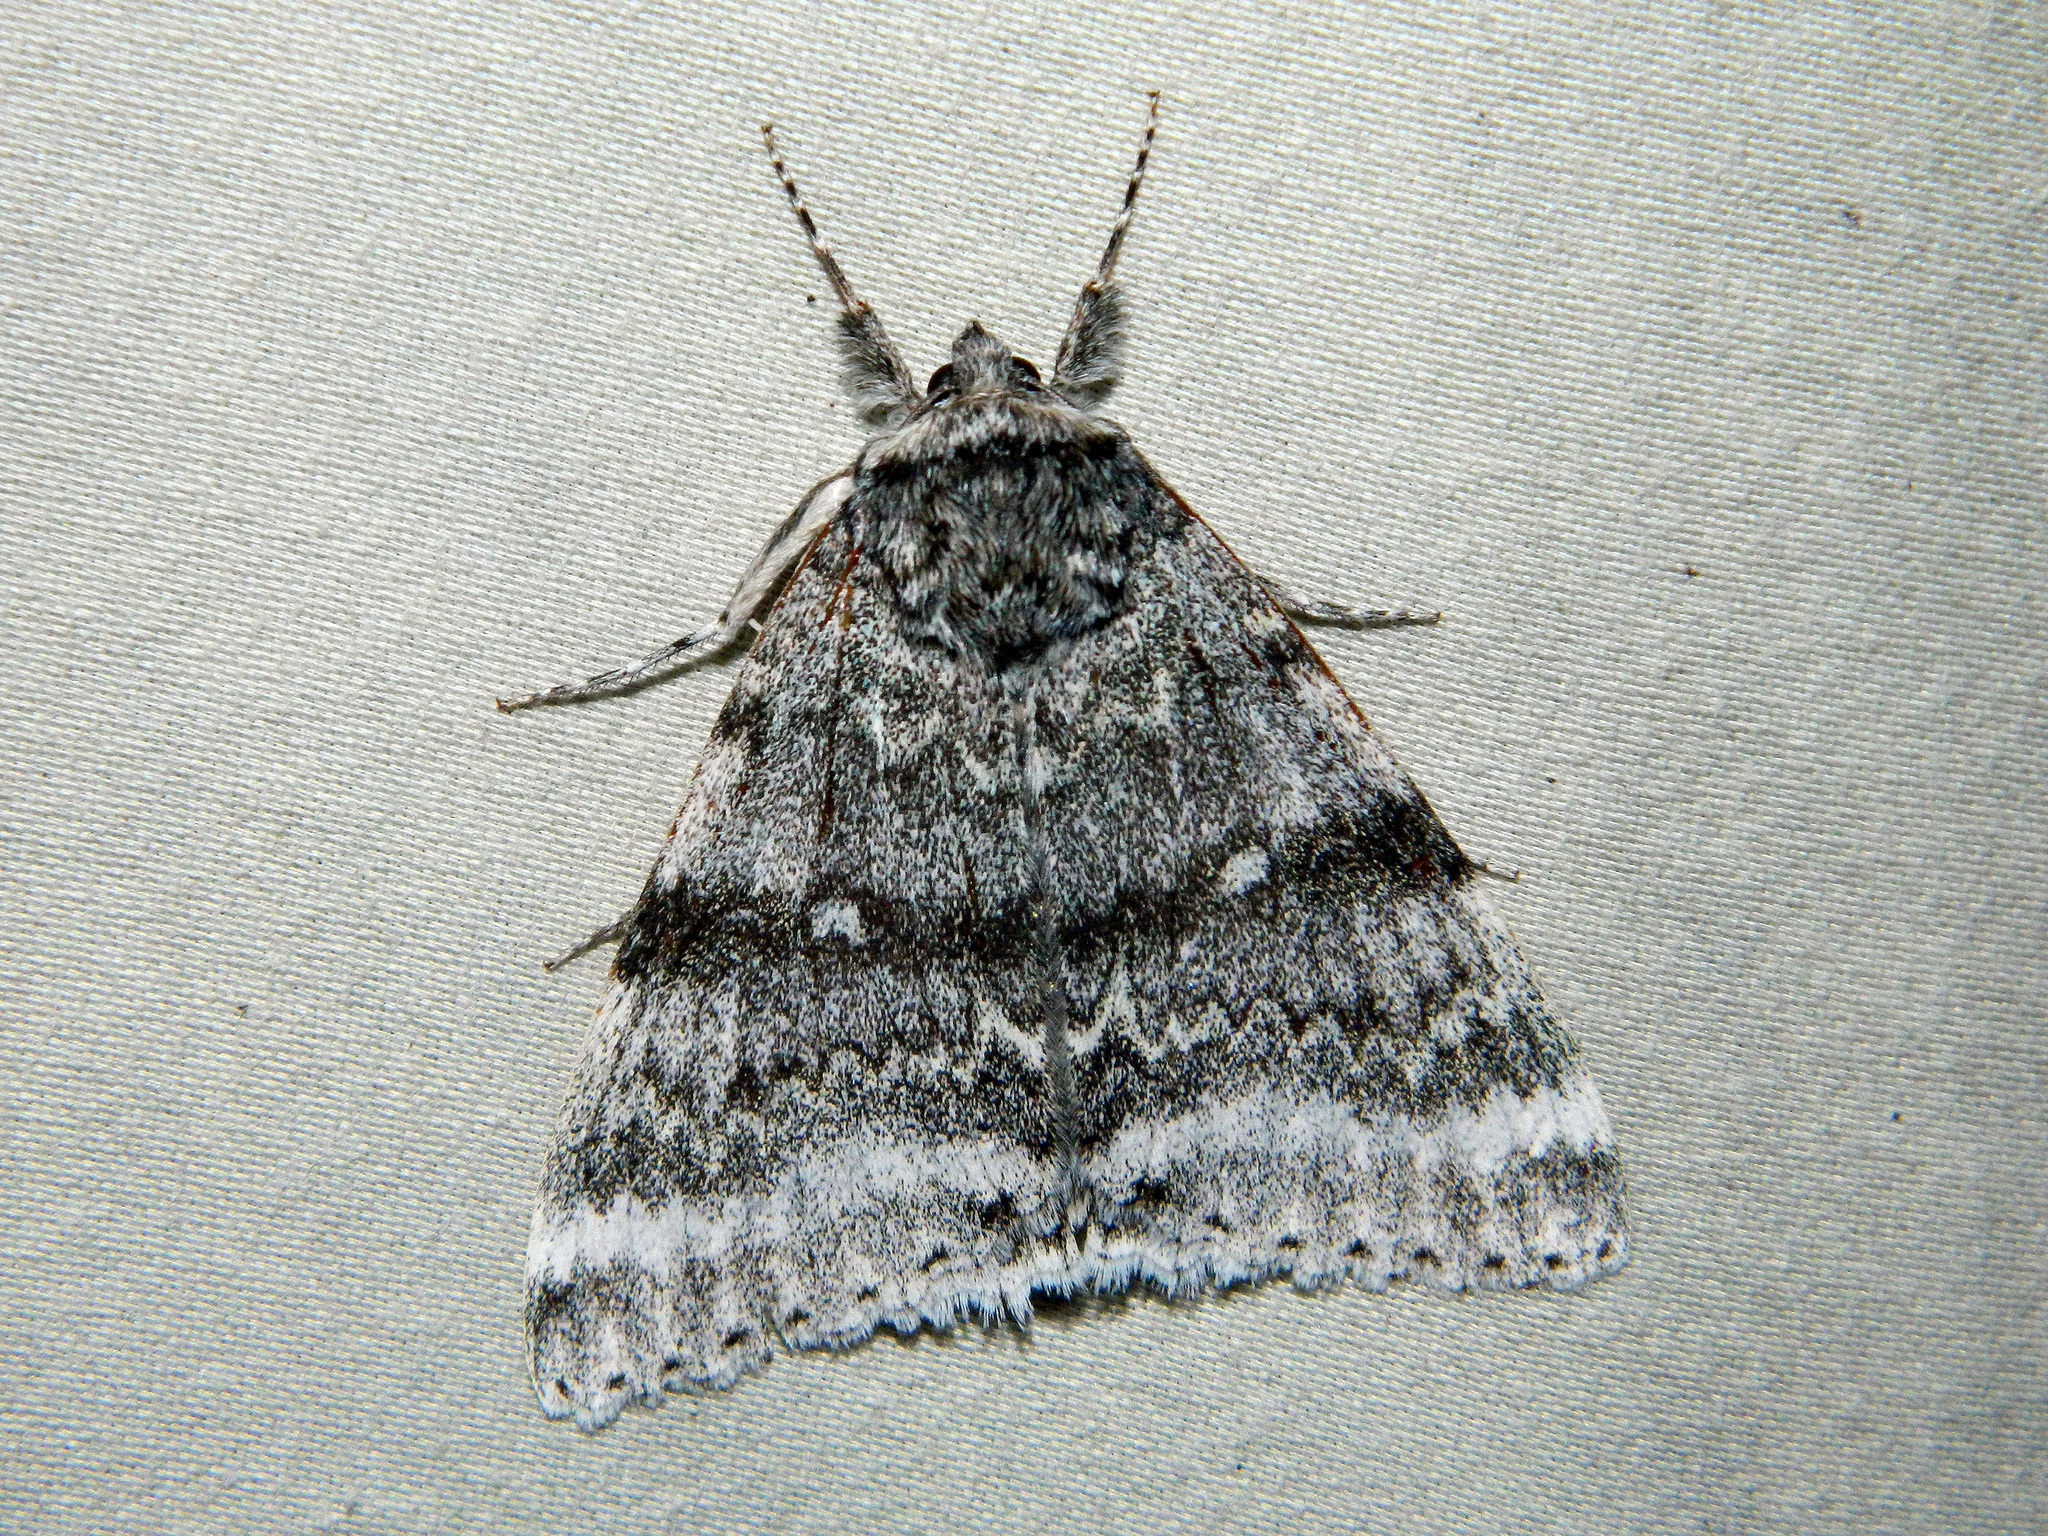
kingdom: Animalia
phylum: Arthropoda
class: Insecta
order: Lepidoptera
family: Erebidae
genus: Catocala
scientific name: Catocala relicta
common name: White underwing
